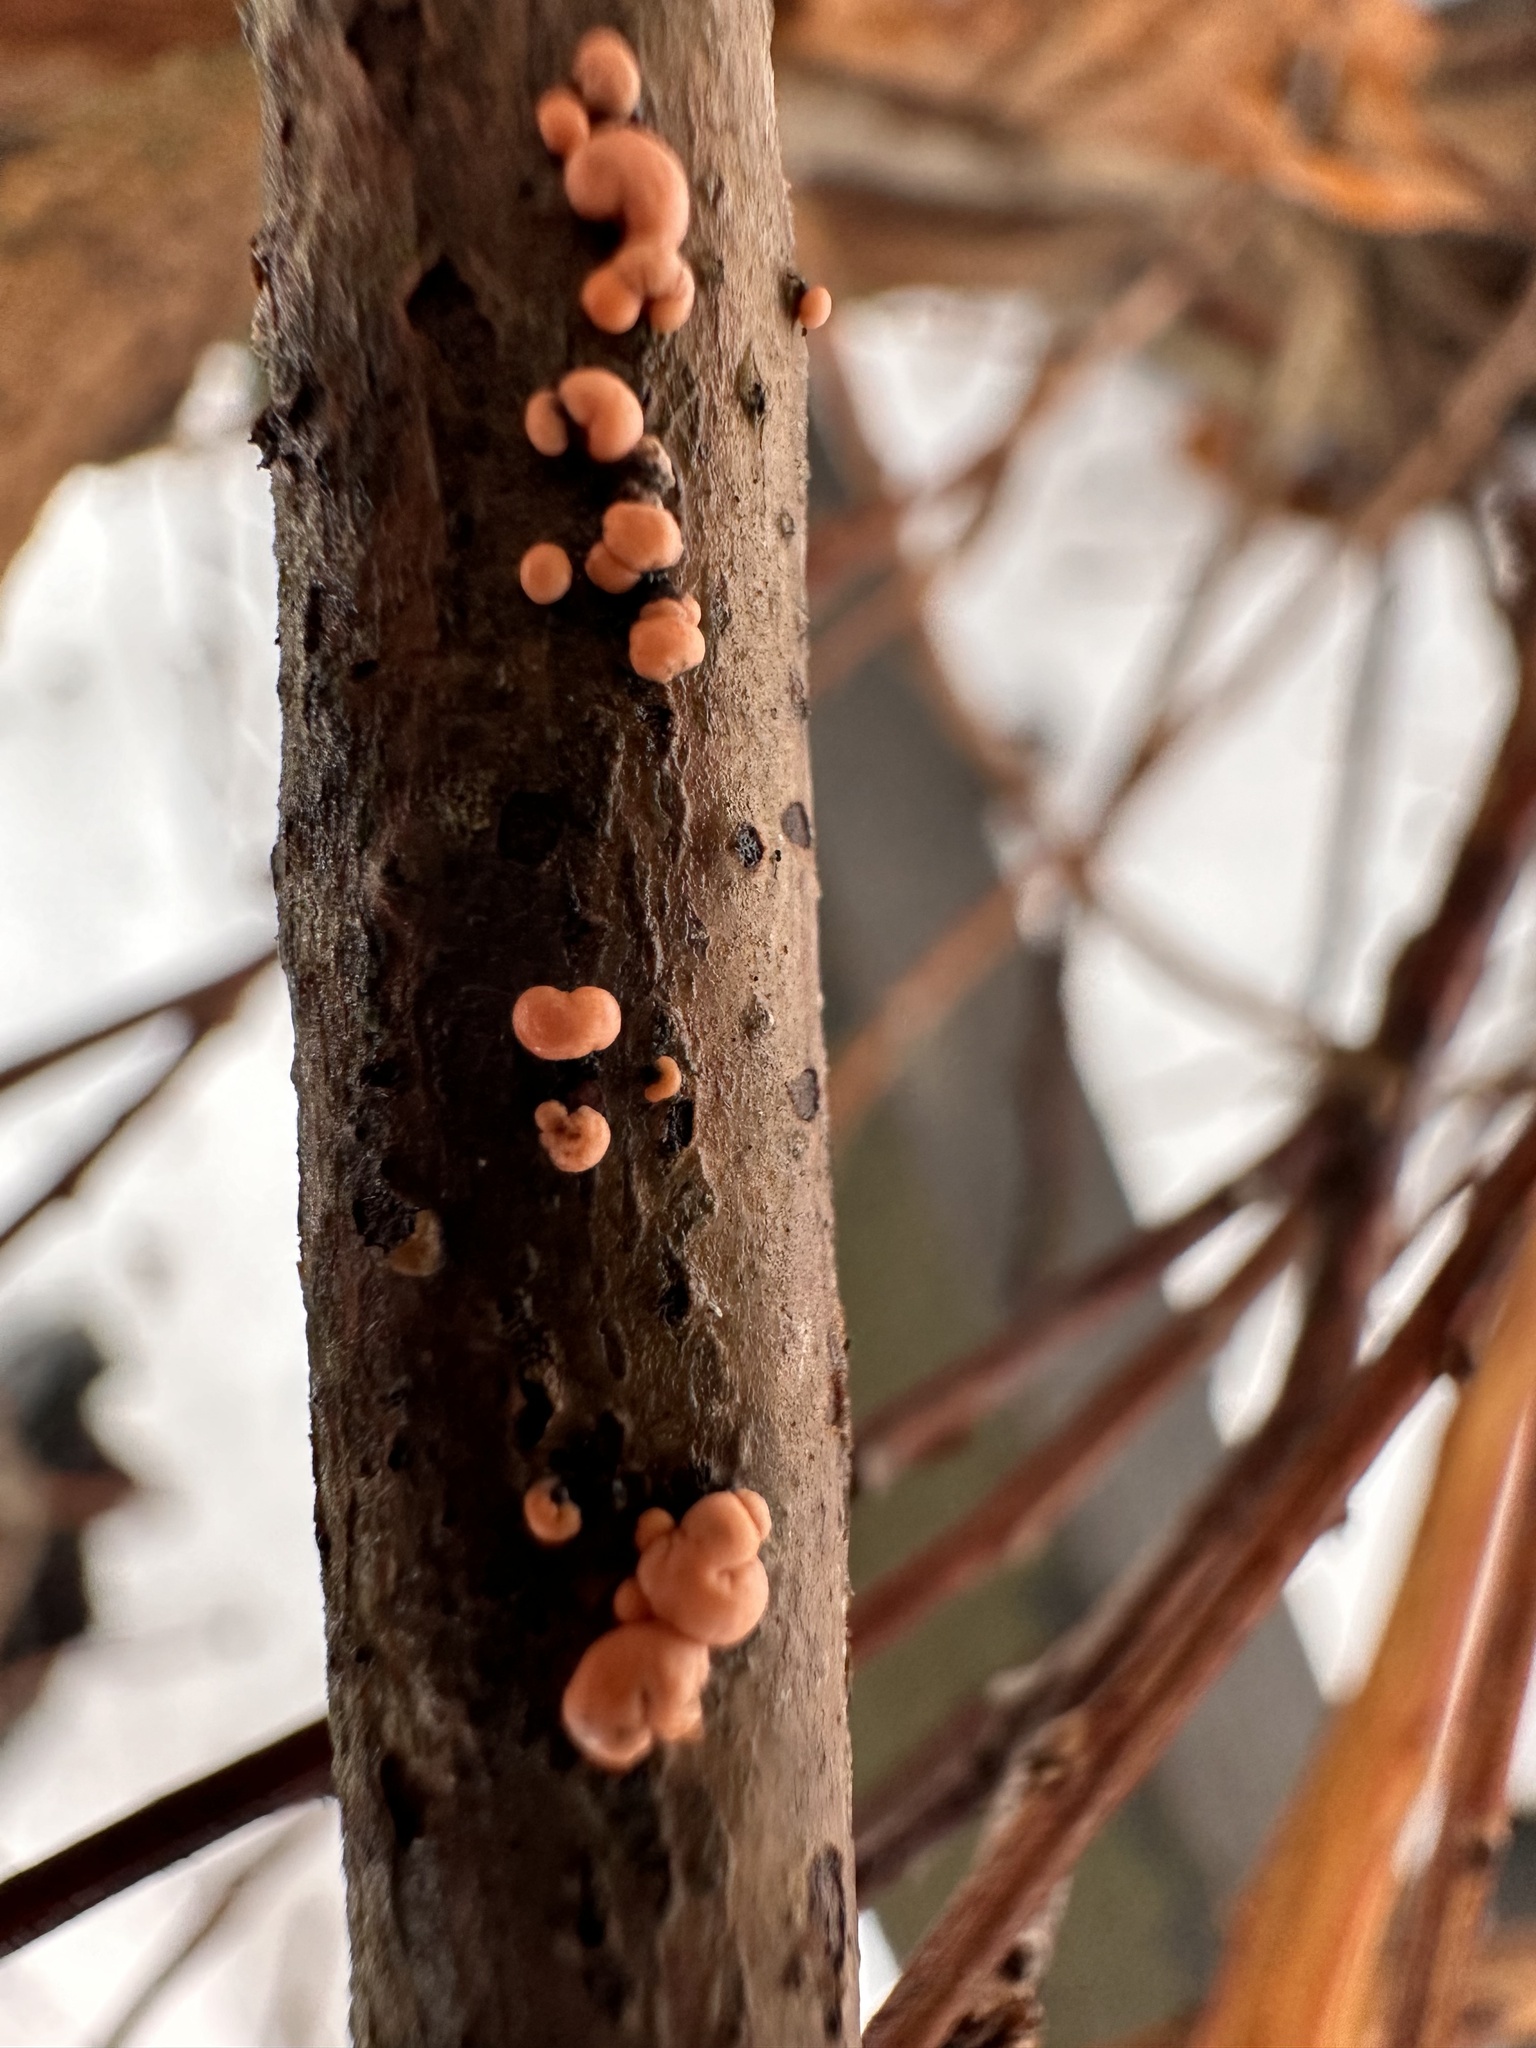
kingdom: Fungi
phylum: Ascomycota
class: Sordariomycetes
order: Hypocreales
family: Nectriaceae
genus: Nectria
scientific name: Nectria cinnabarina
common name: Coral spot
